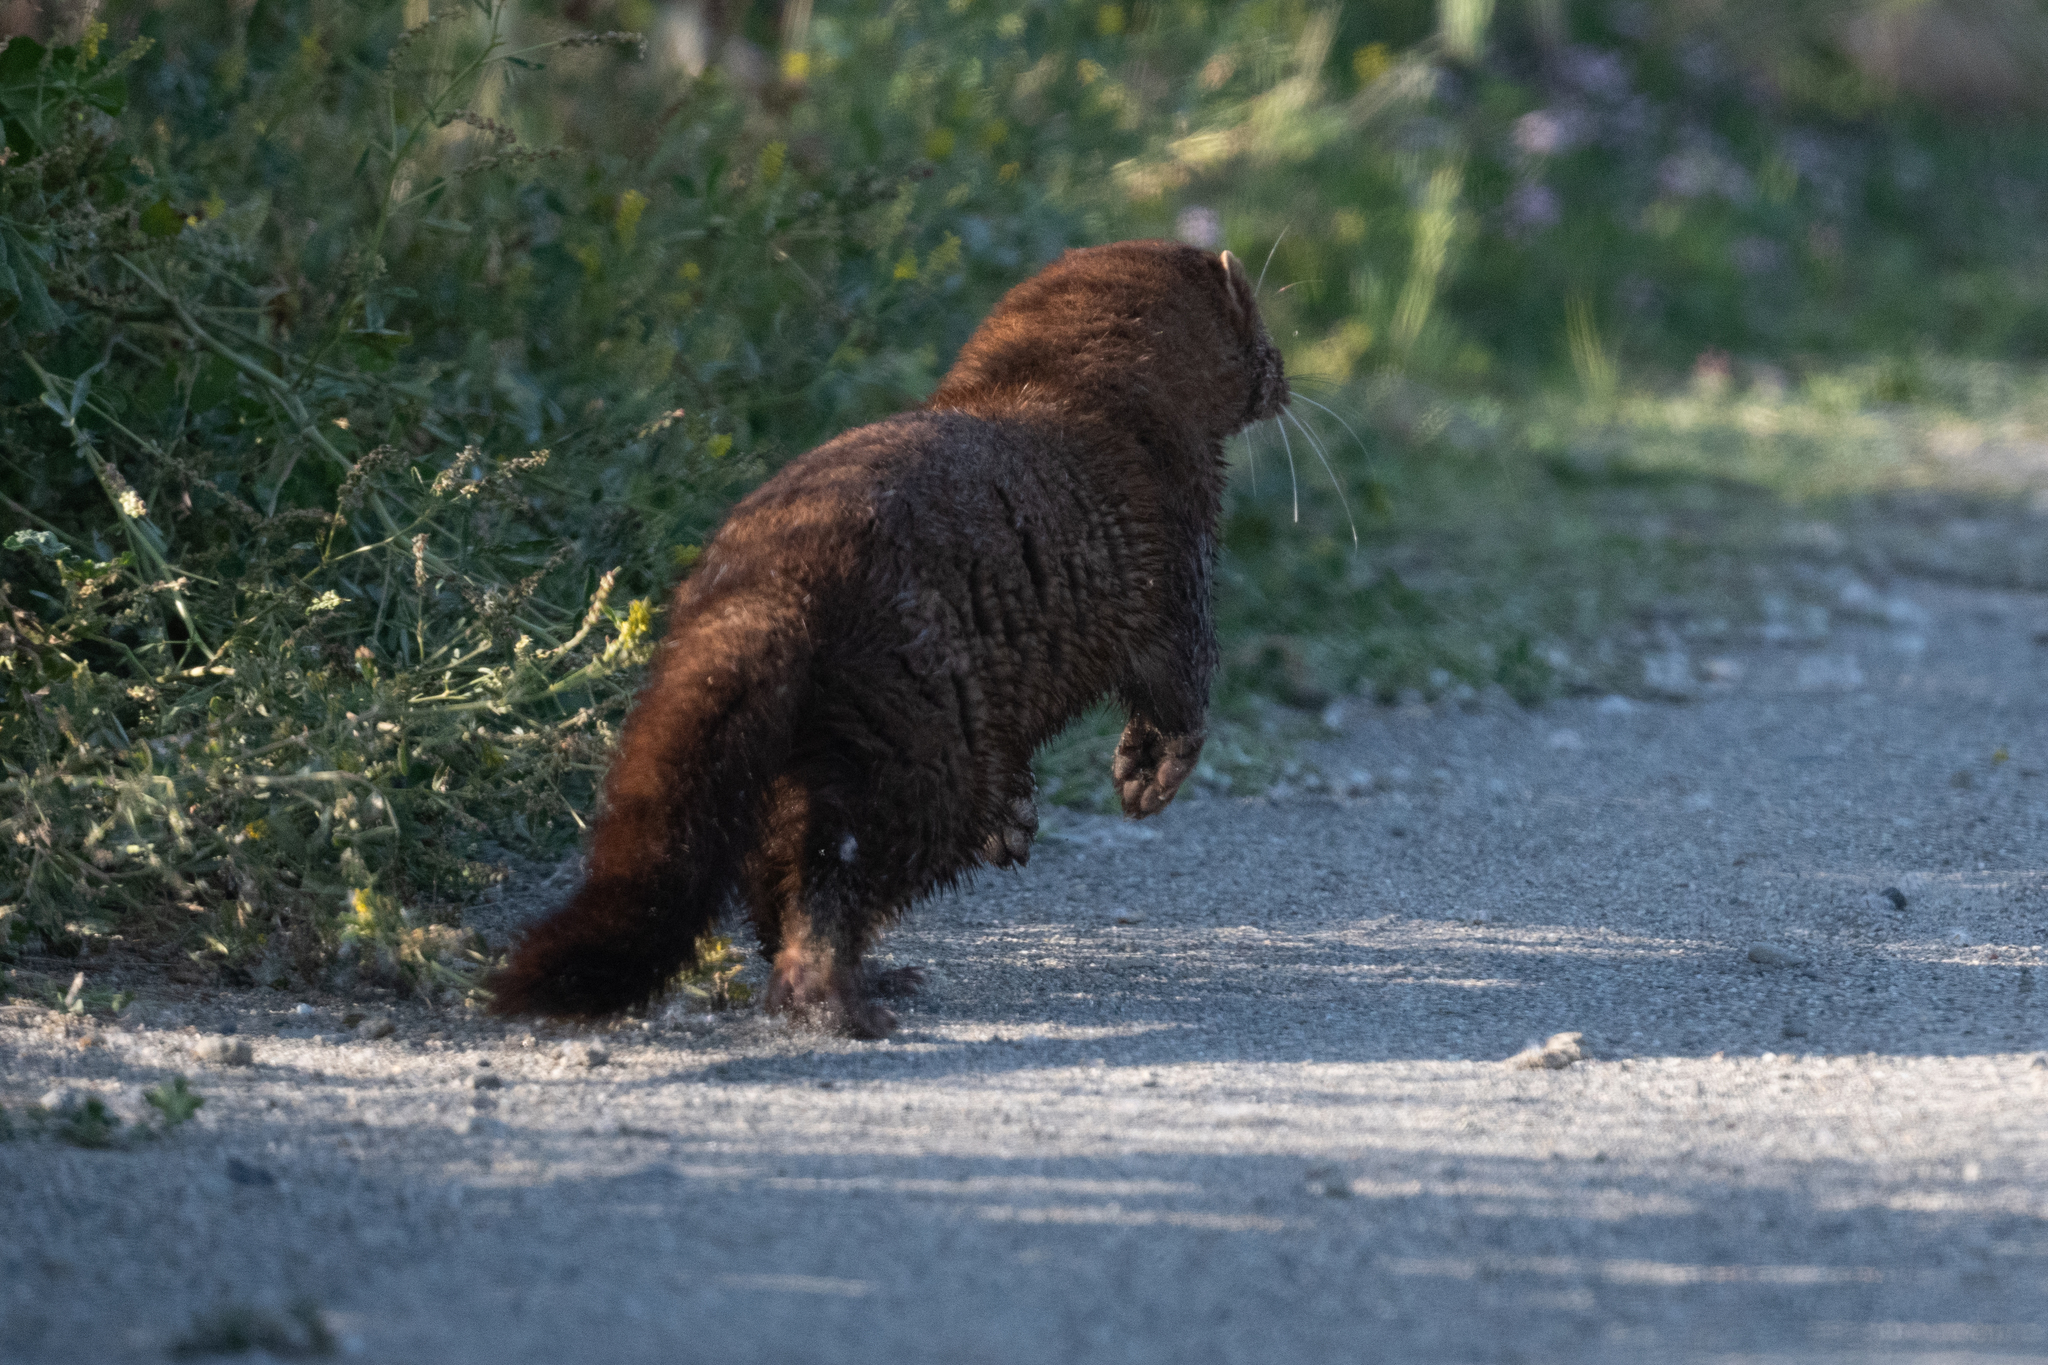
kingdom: Animalia
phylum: Chordata
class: Mammalia
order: Carnivora
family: Mustelidae
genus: Mustela
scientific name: Mustela
